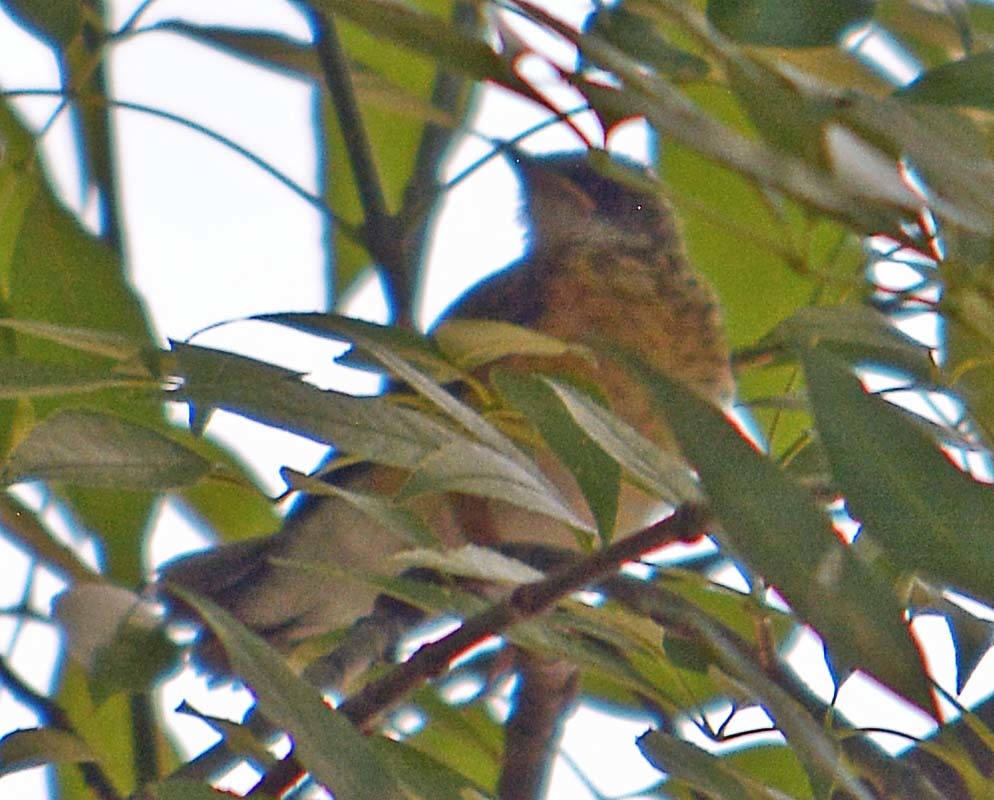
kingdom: Animalia
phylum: Chordata
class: Aves
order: Passeriformes
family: Turdidae
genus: Turdus
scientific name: Turdus migratorius
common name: American robin
